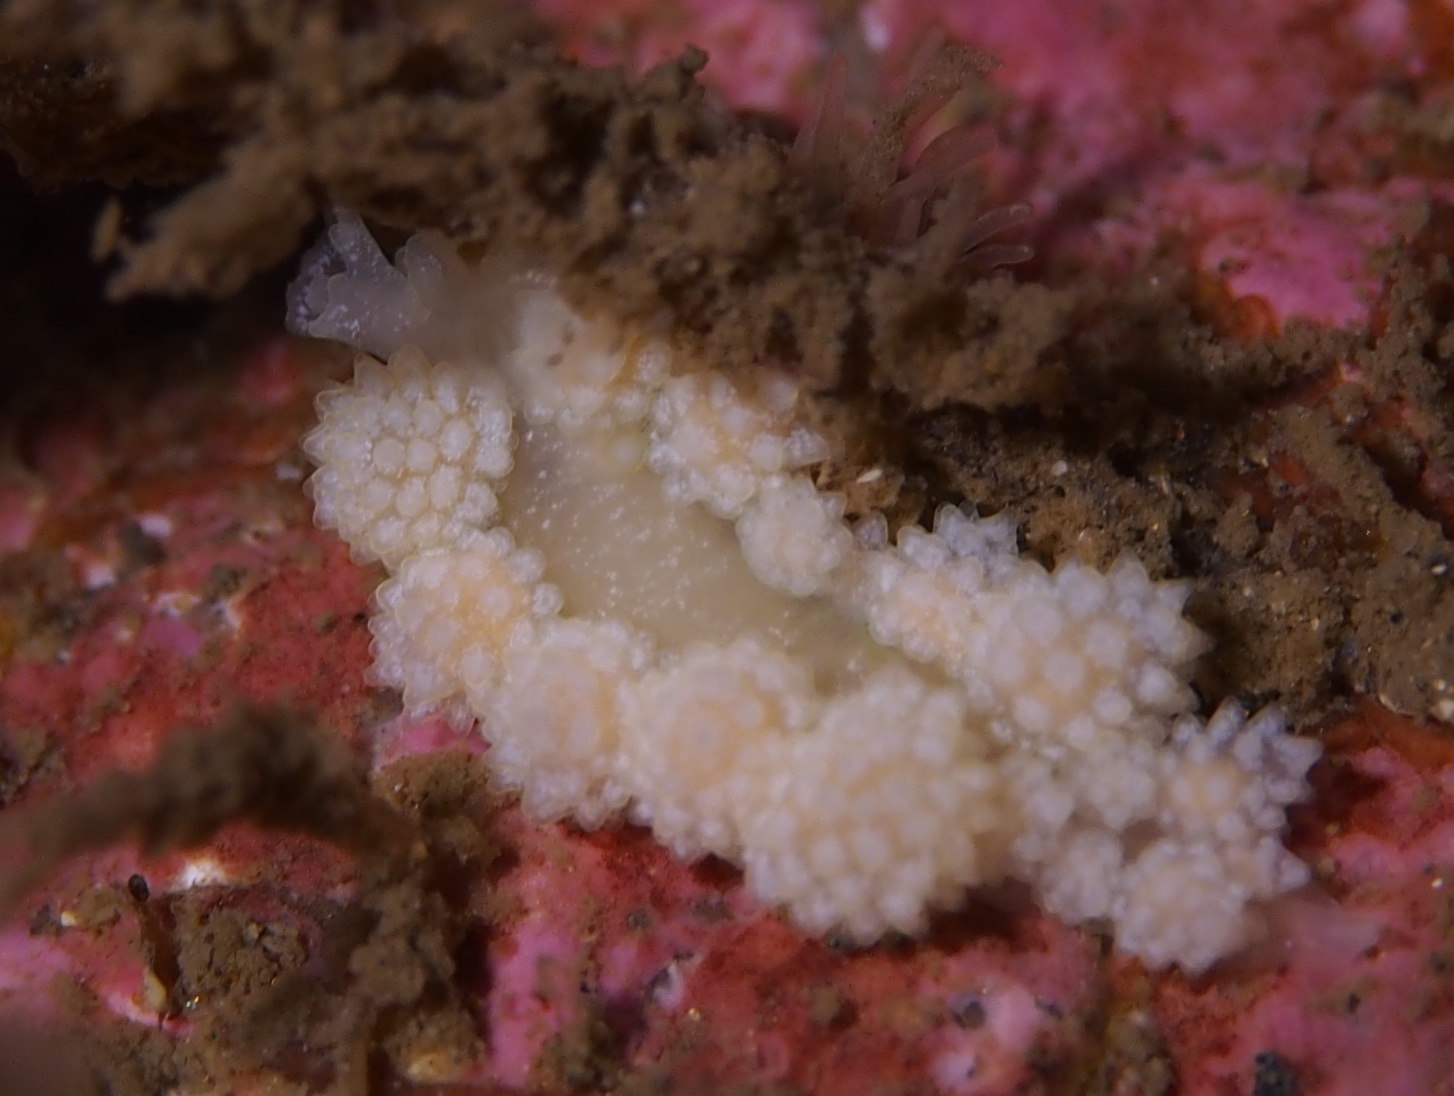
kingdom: Animalia
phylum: Mollusca
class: Gastropoda
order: Nudibranchia
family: Dotidae
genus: Doto
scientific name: Doto fragilis
